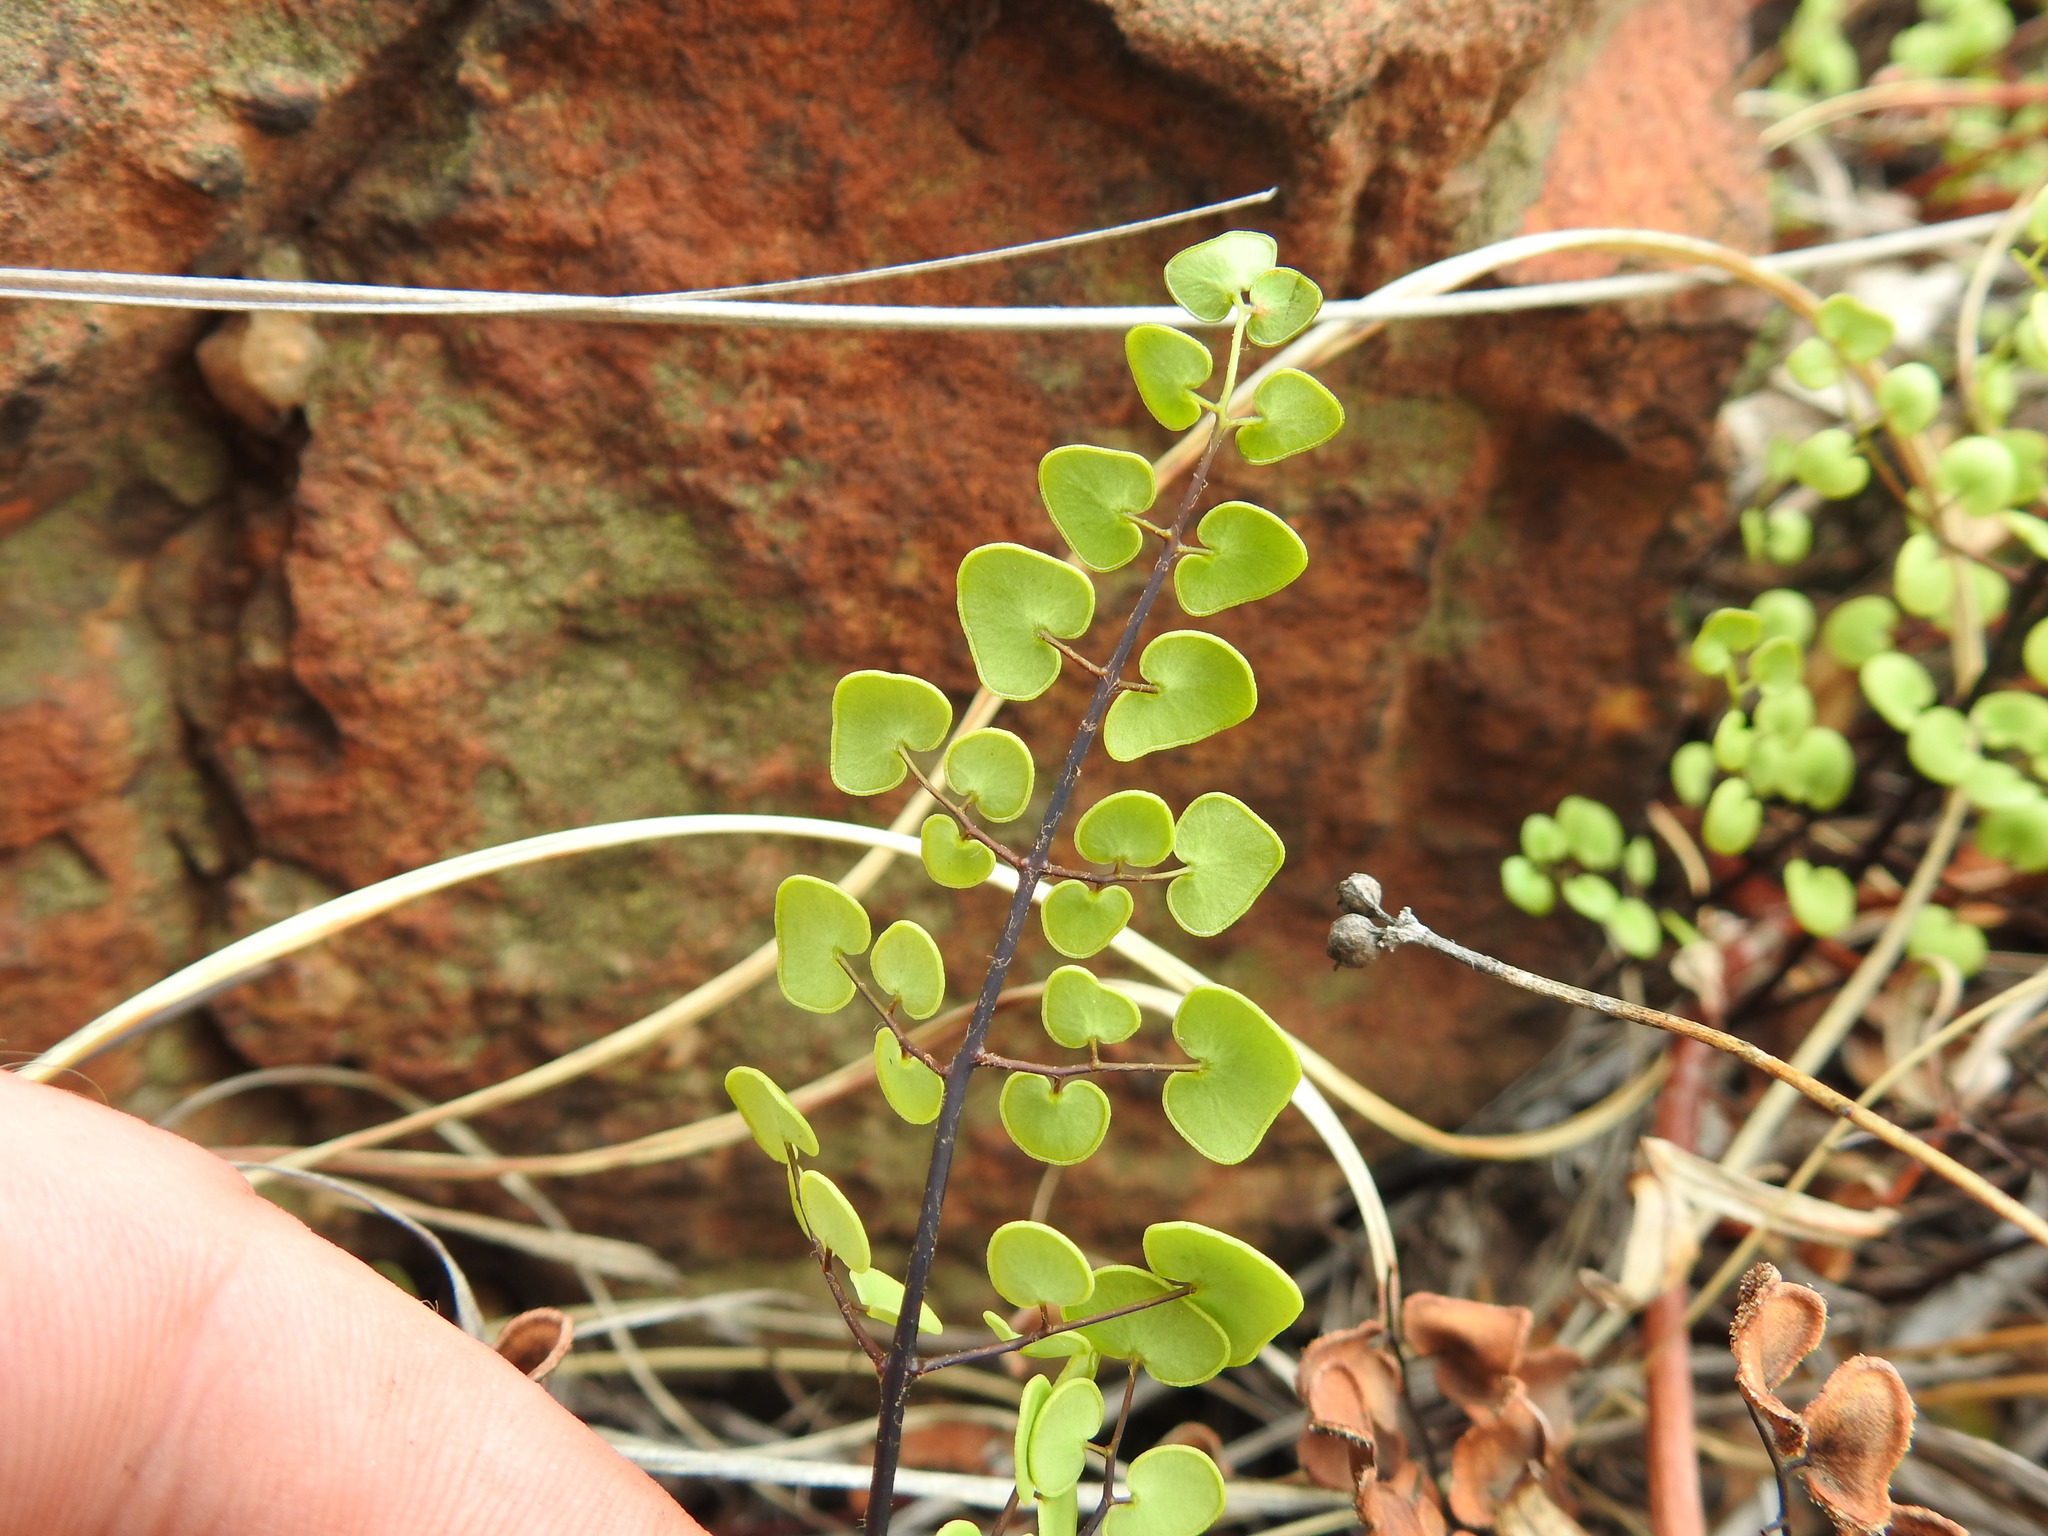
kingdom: Plantae
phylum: Tracheophyta
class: Polypodiopsida
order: Polypodiales
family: Pteridaceae
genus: Pellaea
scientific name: Pellaea calomelanos
